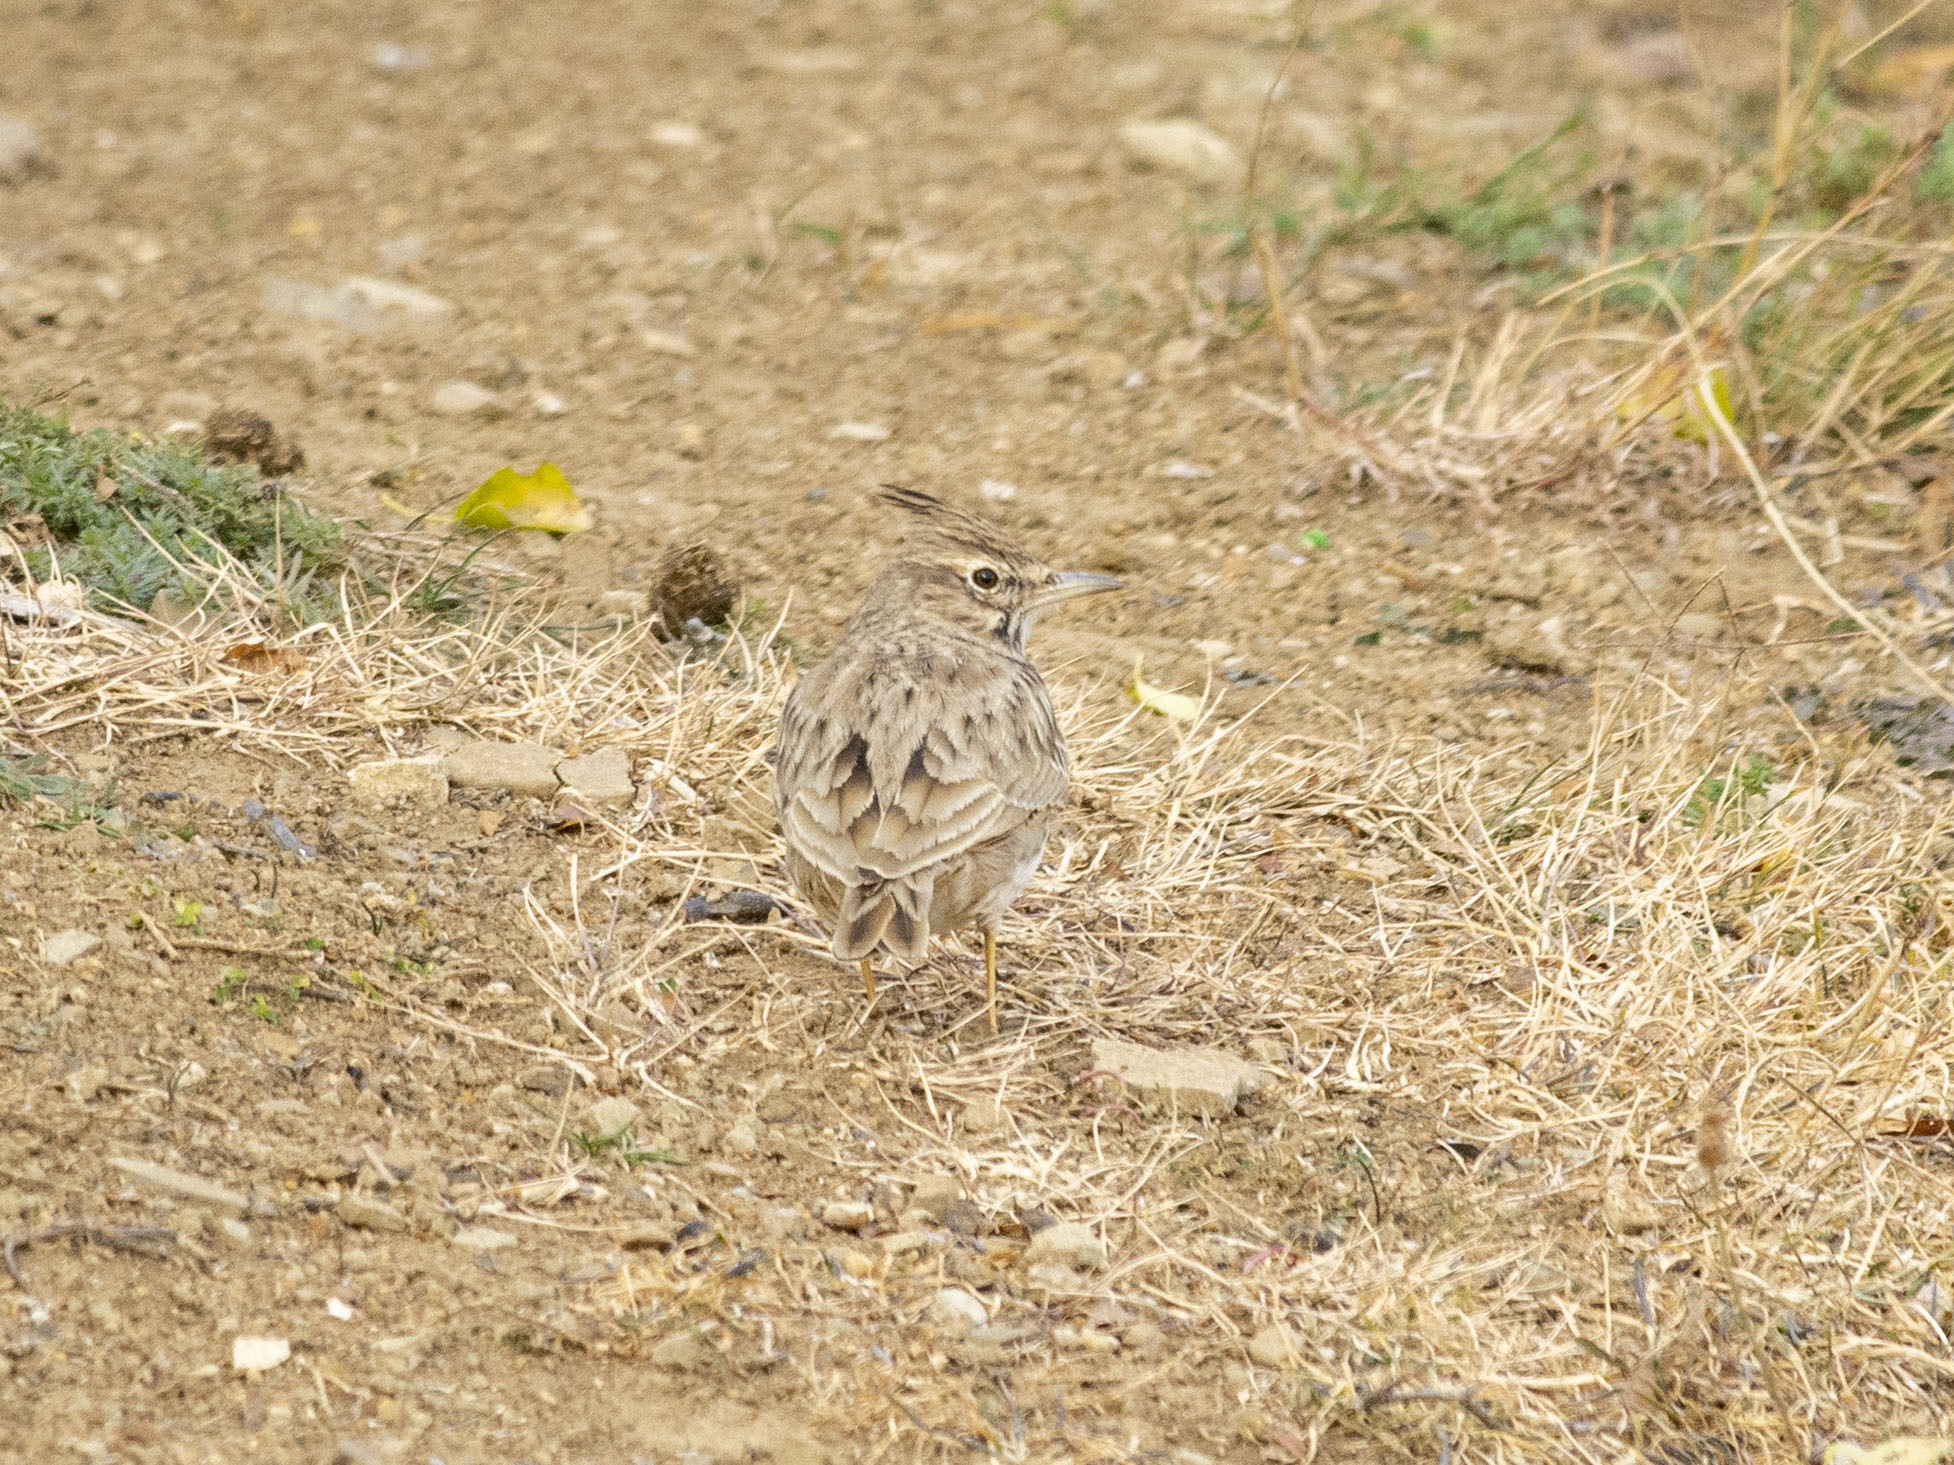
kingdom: Animalia
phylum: Chordata
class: Aves
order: Passeriformes
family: Alaudidae
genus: Galerida
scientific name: Galerida cristata
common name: Crested lark
